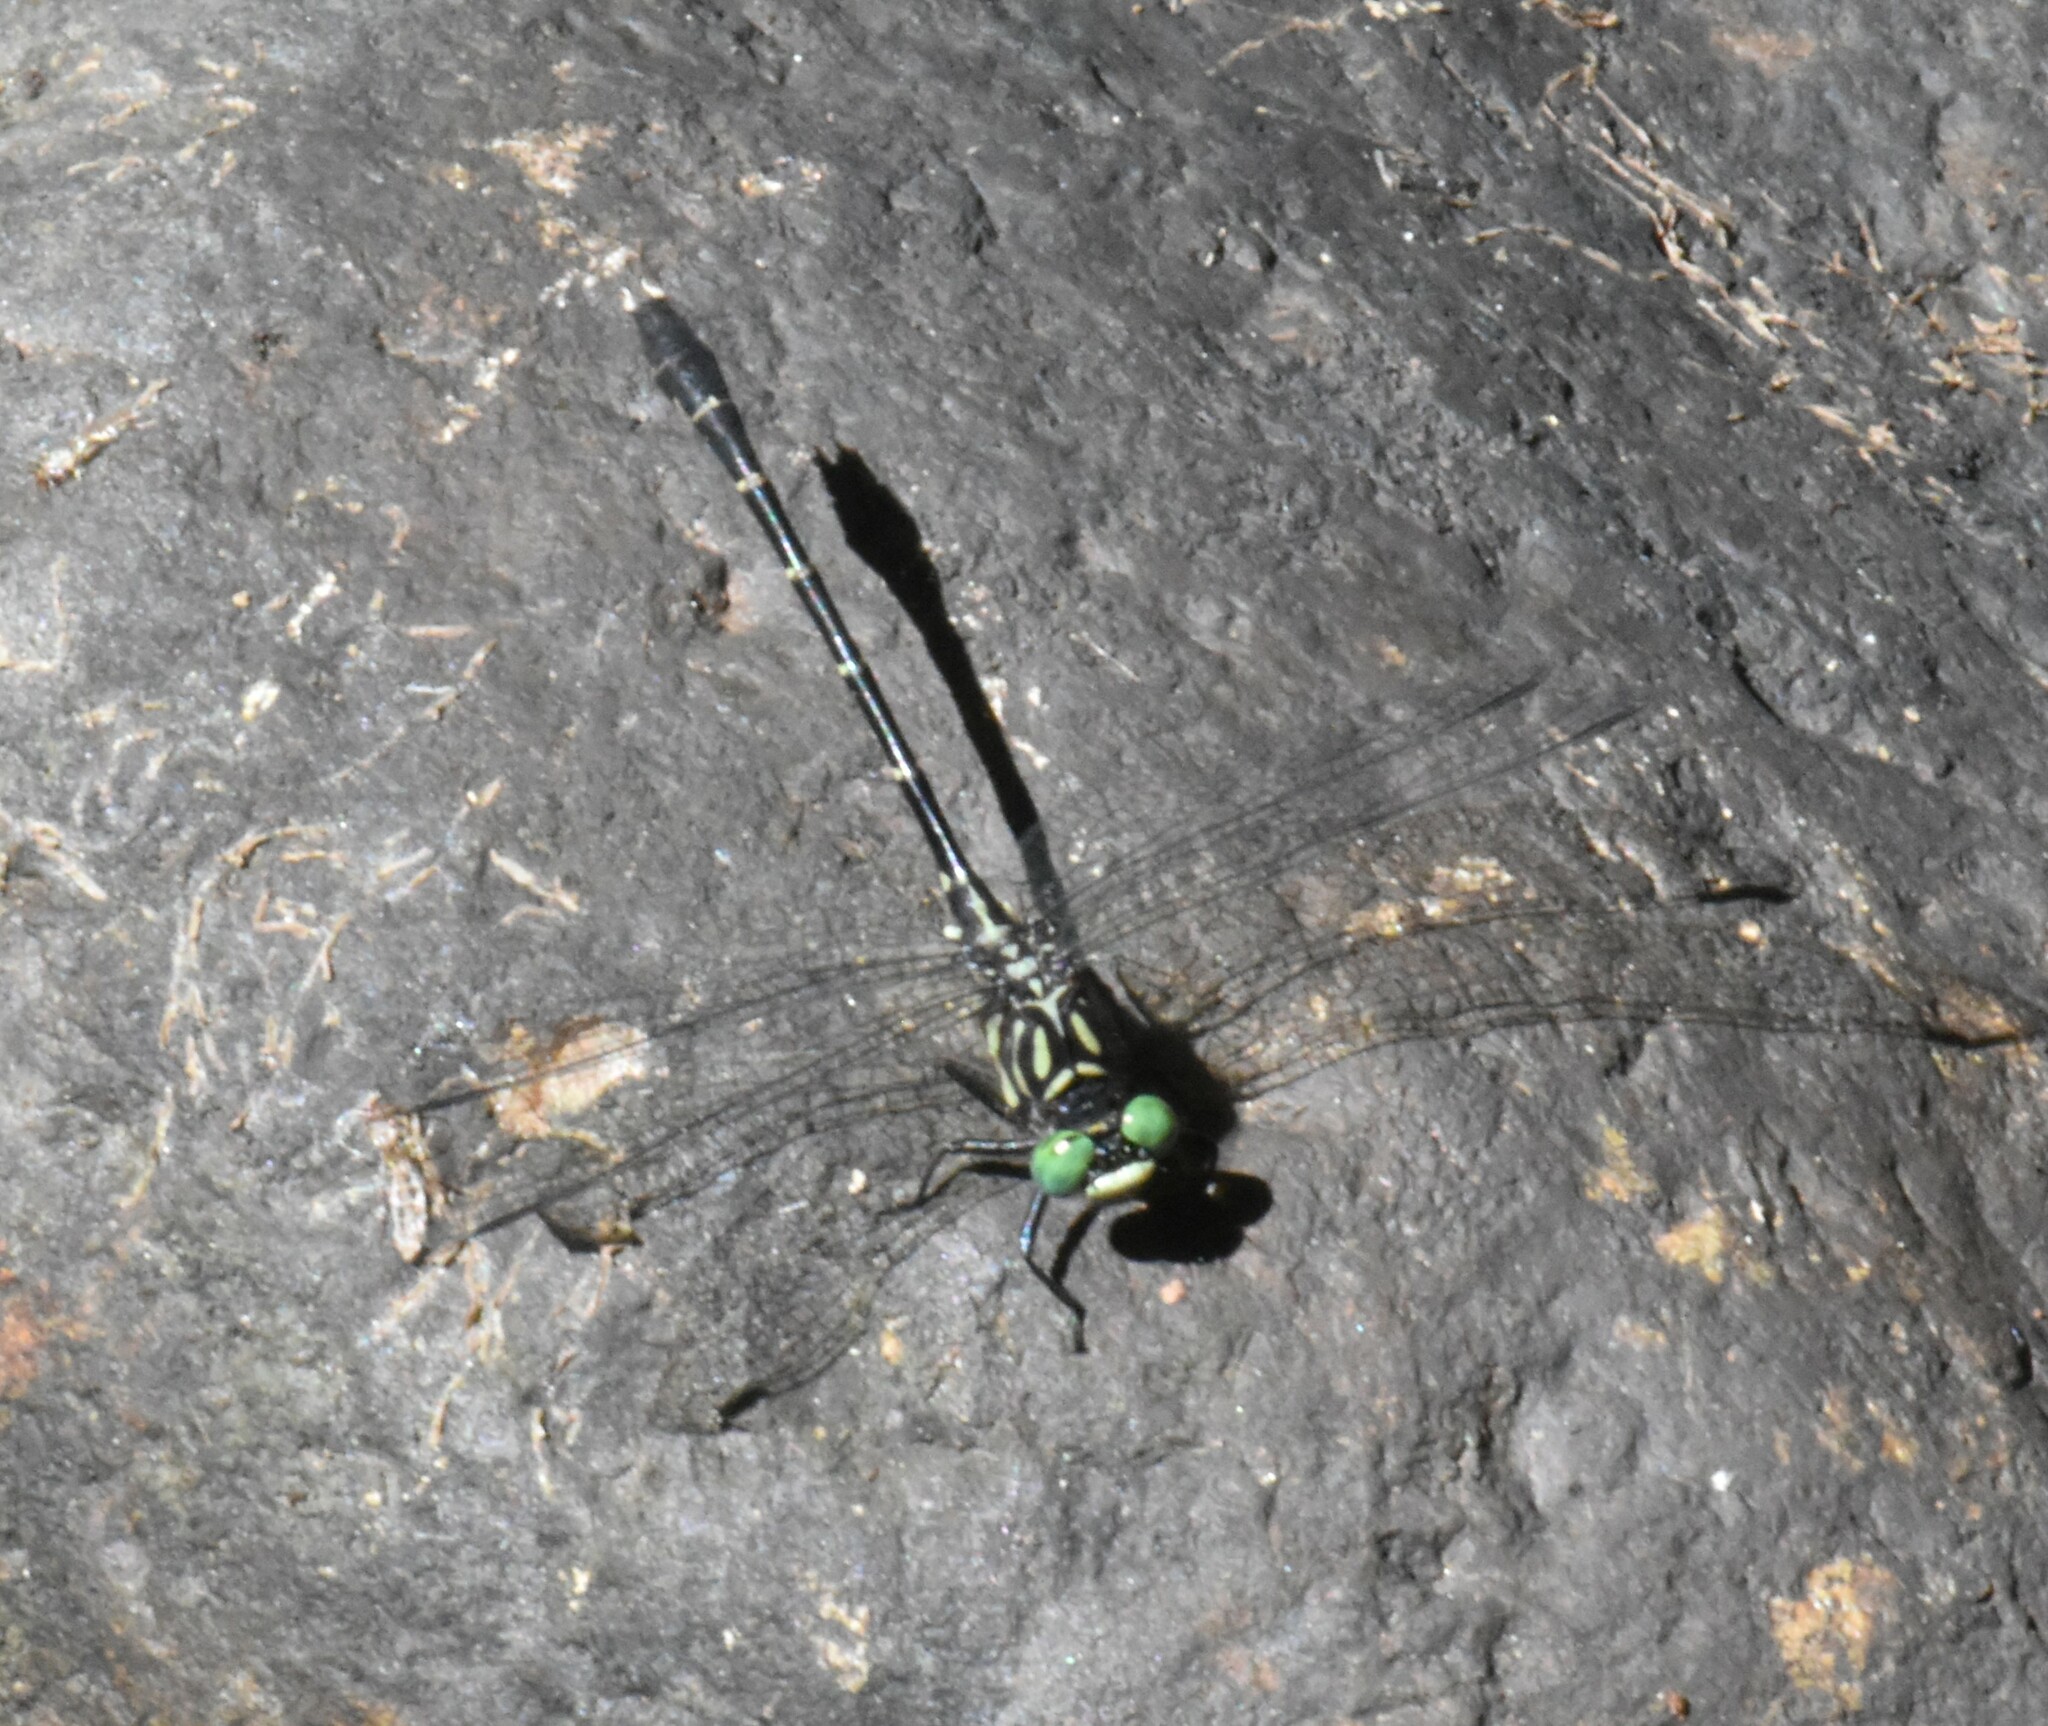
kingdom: Animalia
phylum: Arthropoda
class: Insecta
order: Odonata
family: Gomphidae
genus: Stylogomphus
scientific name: Stylogomphus albistylus
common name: Eastern least clubtail
